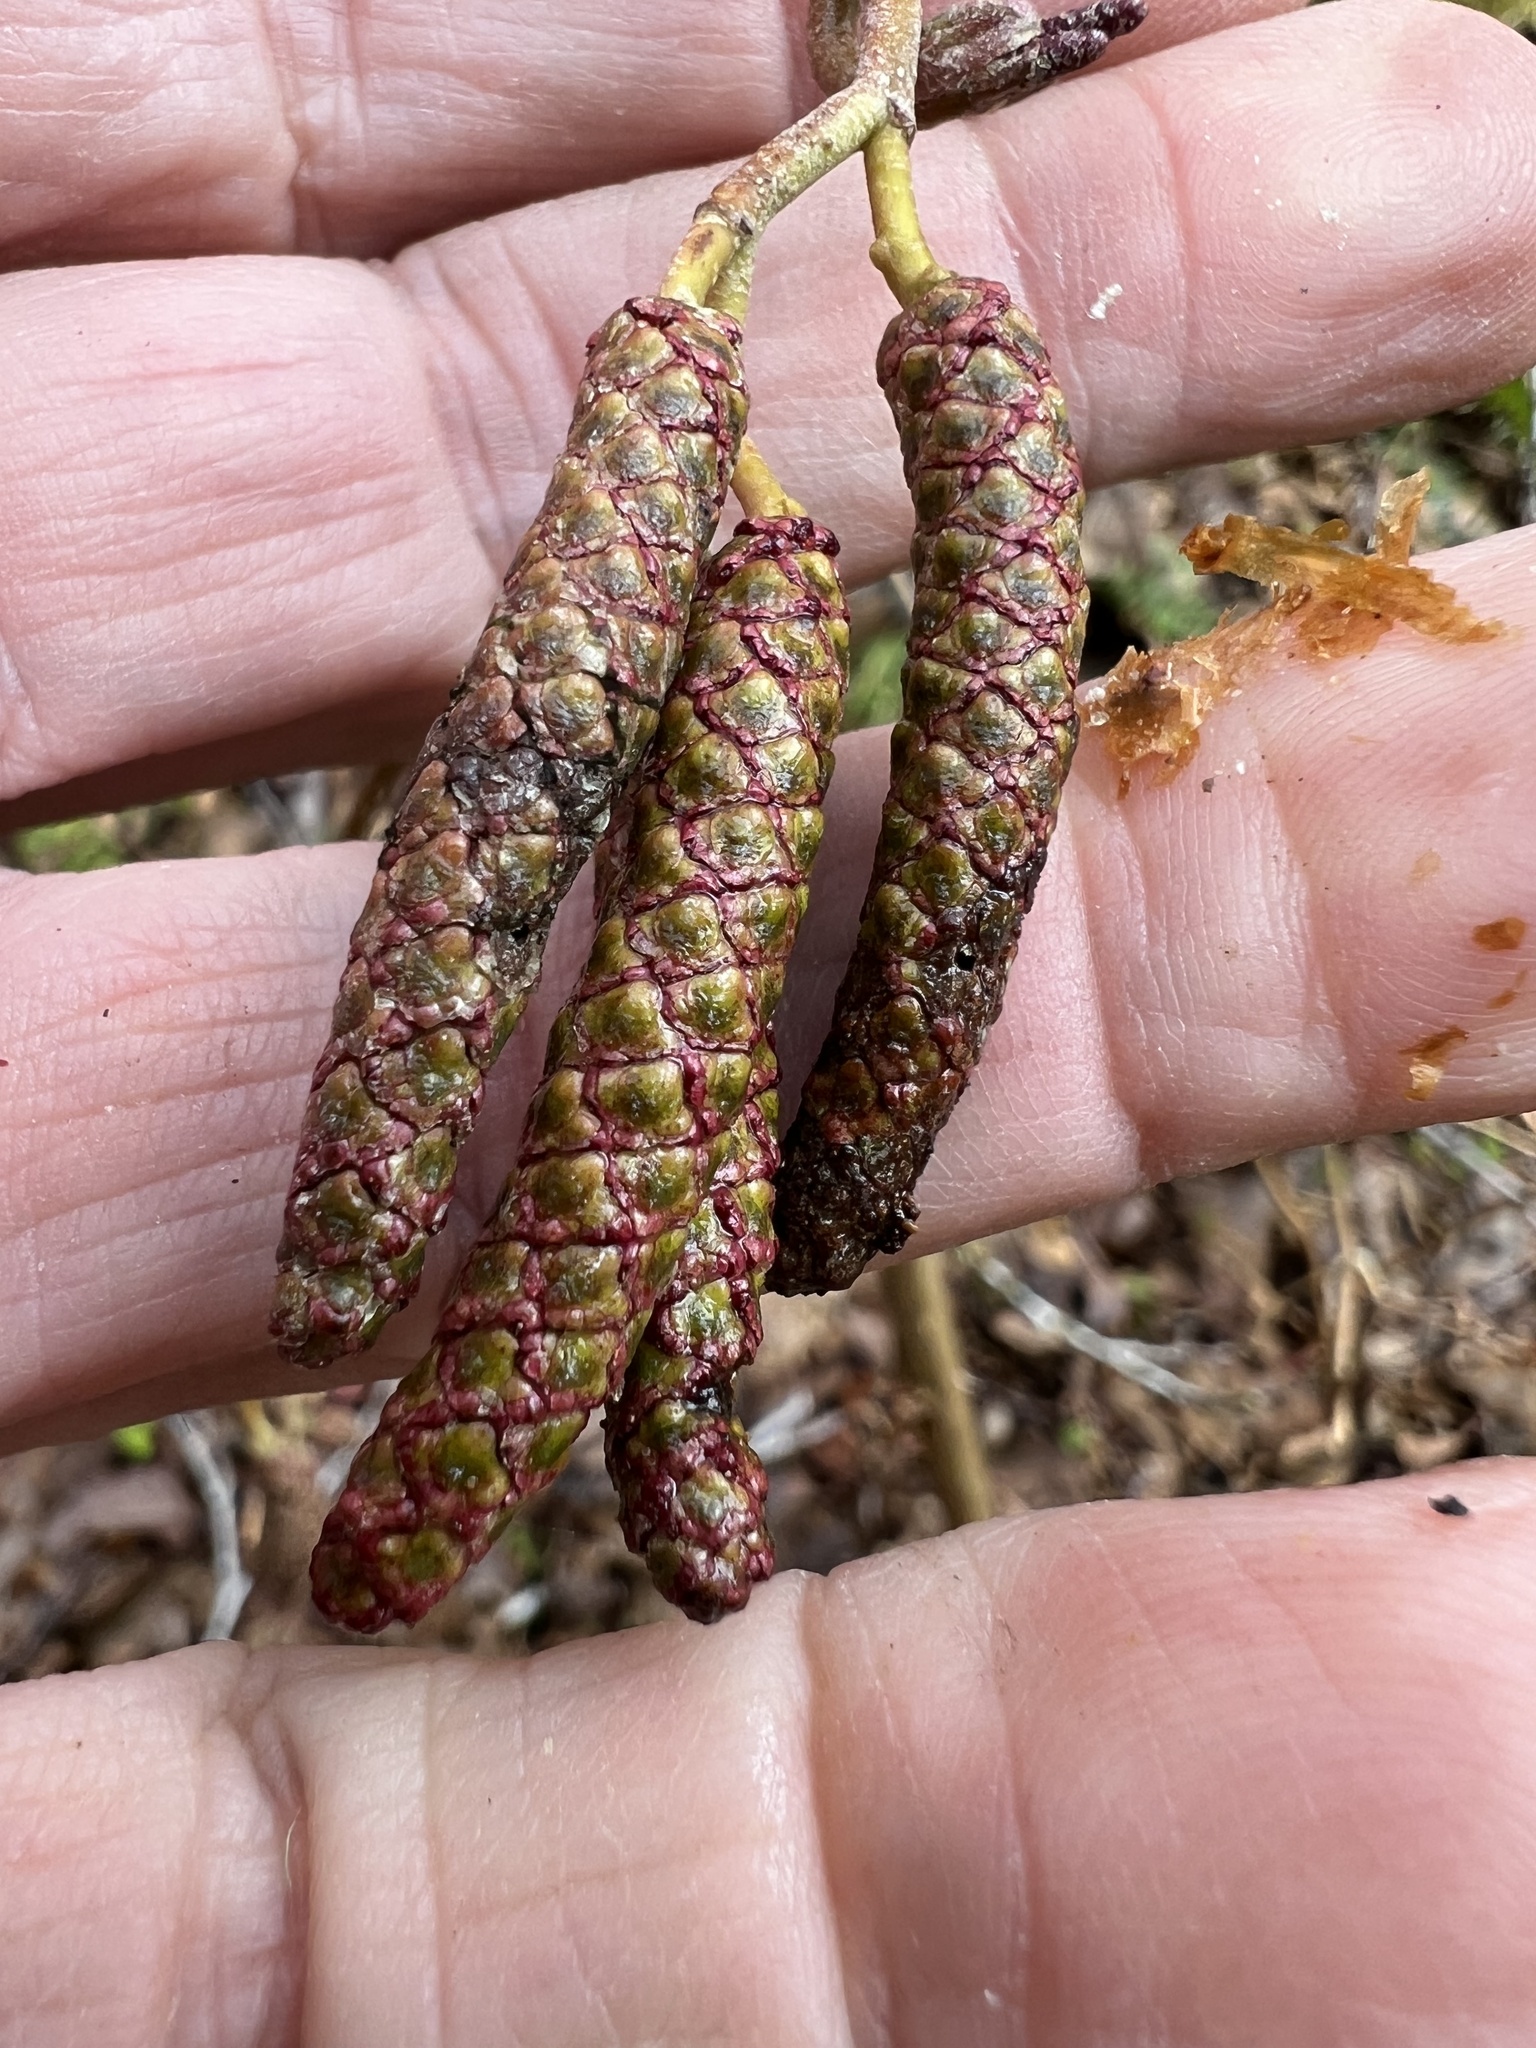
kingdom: Plantae
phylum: Tracheophyta
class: Magnoliopsida
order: Fagales
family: Betulaceae
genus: Alnus
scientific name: Alnus rubra
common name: Red alder
